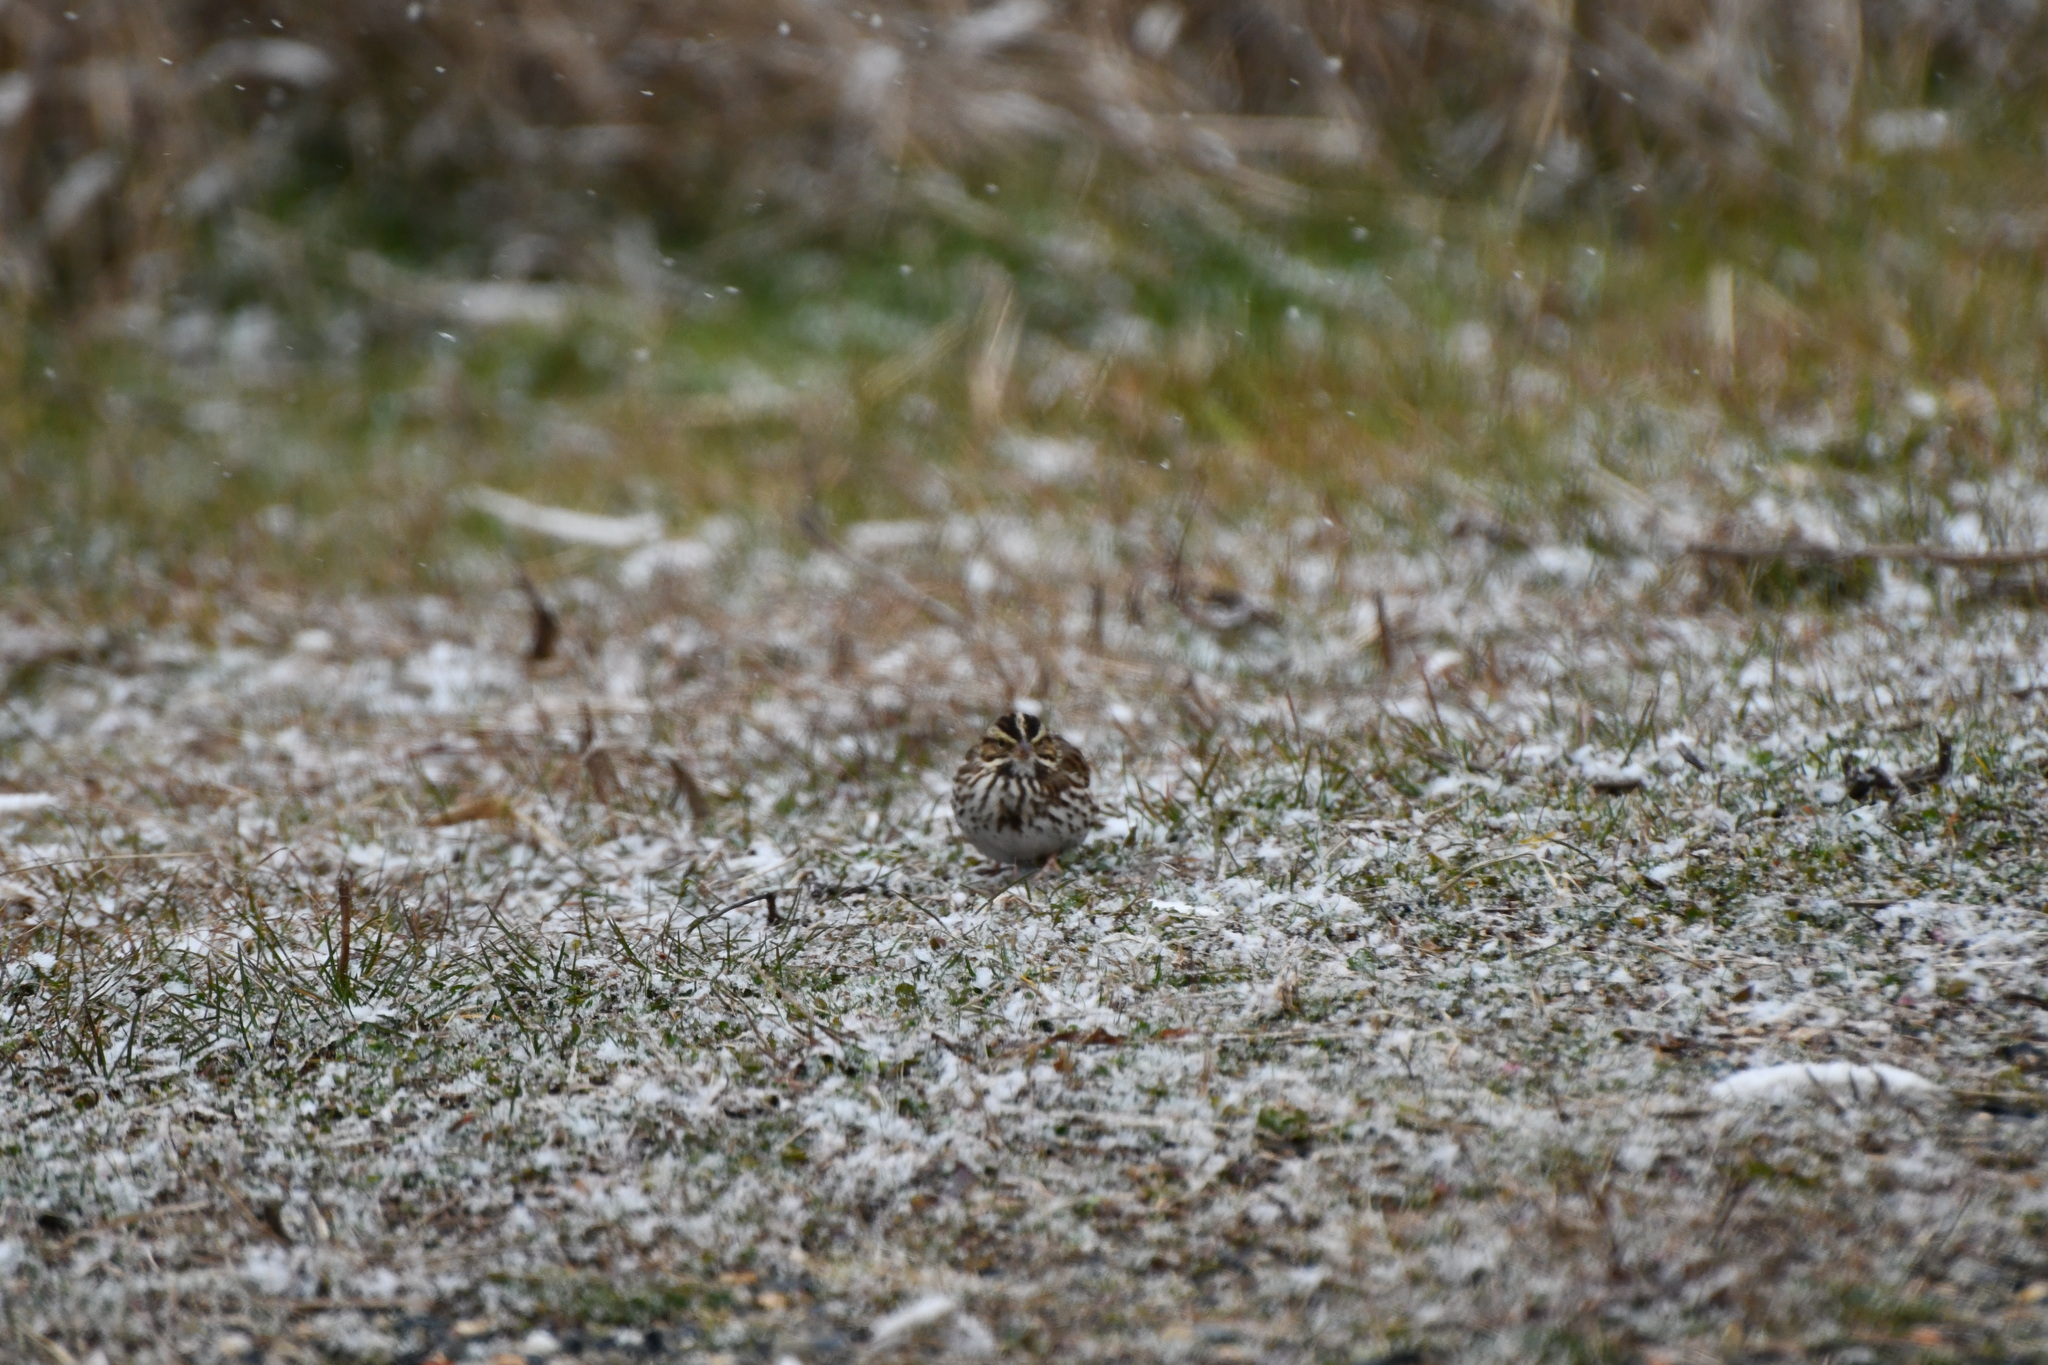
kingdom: Animalia
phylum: Chordata
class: Aves
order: Passeriformes
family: Passerellidae
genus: Passerculus
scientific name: Passerculus sandwichensis
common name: Savannah sparrow
